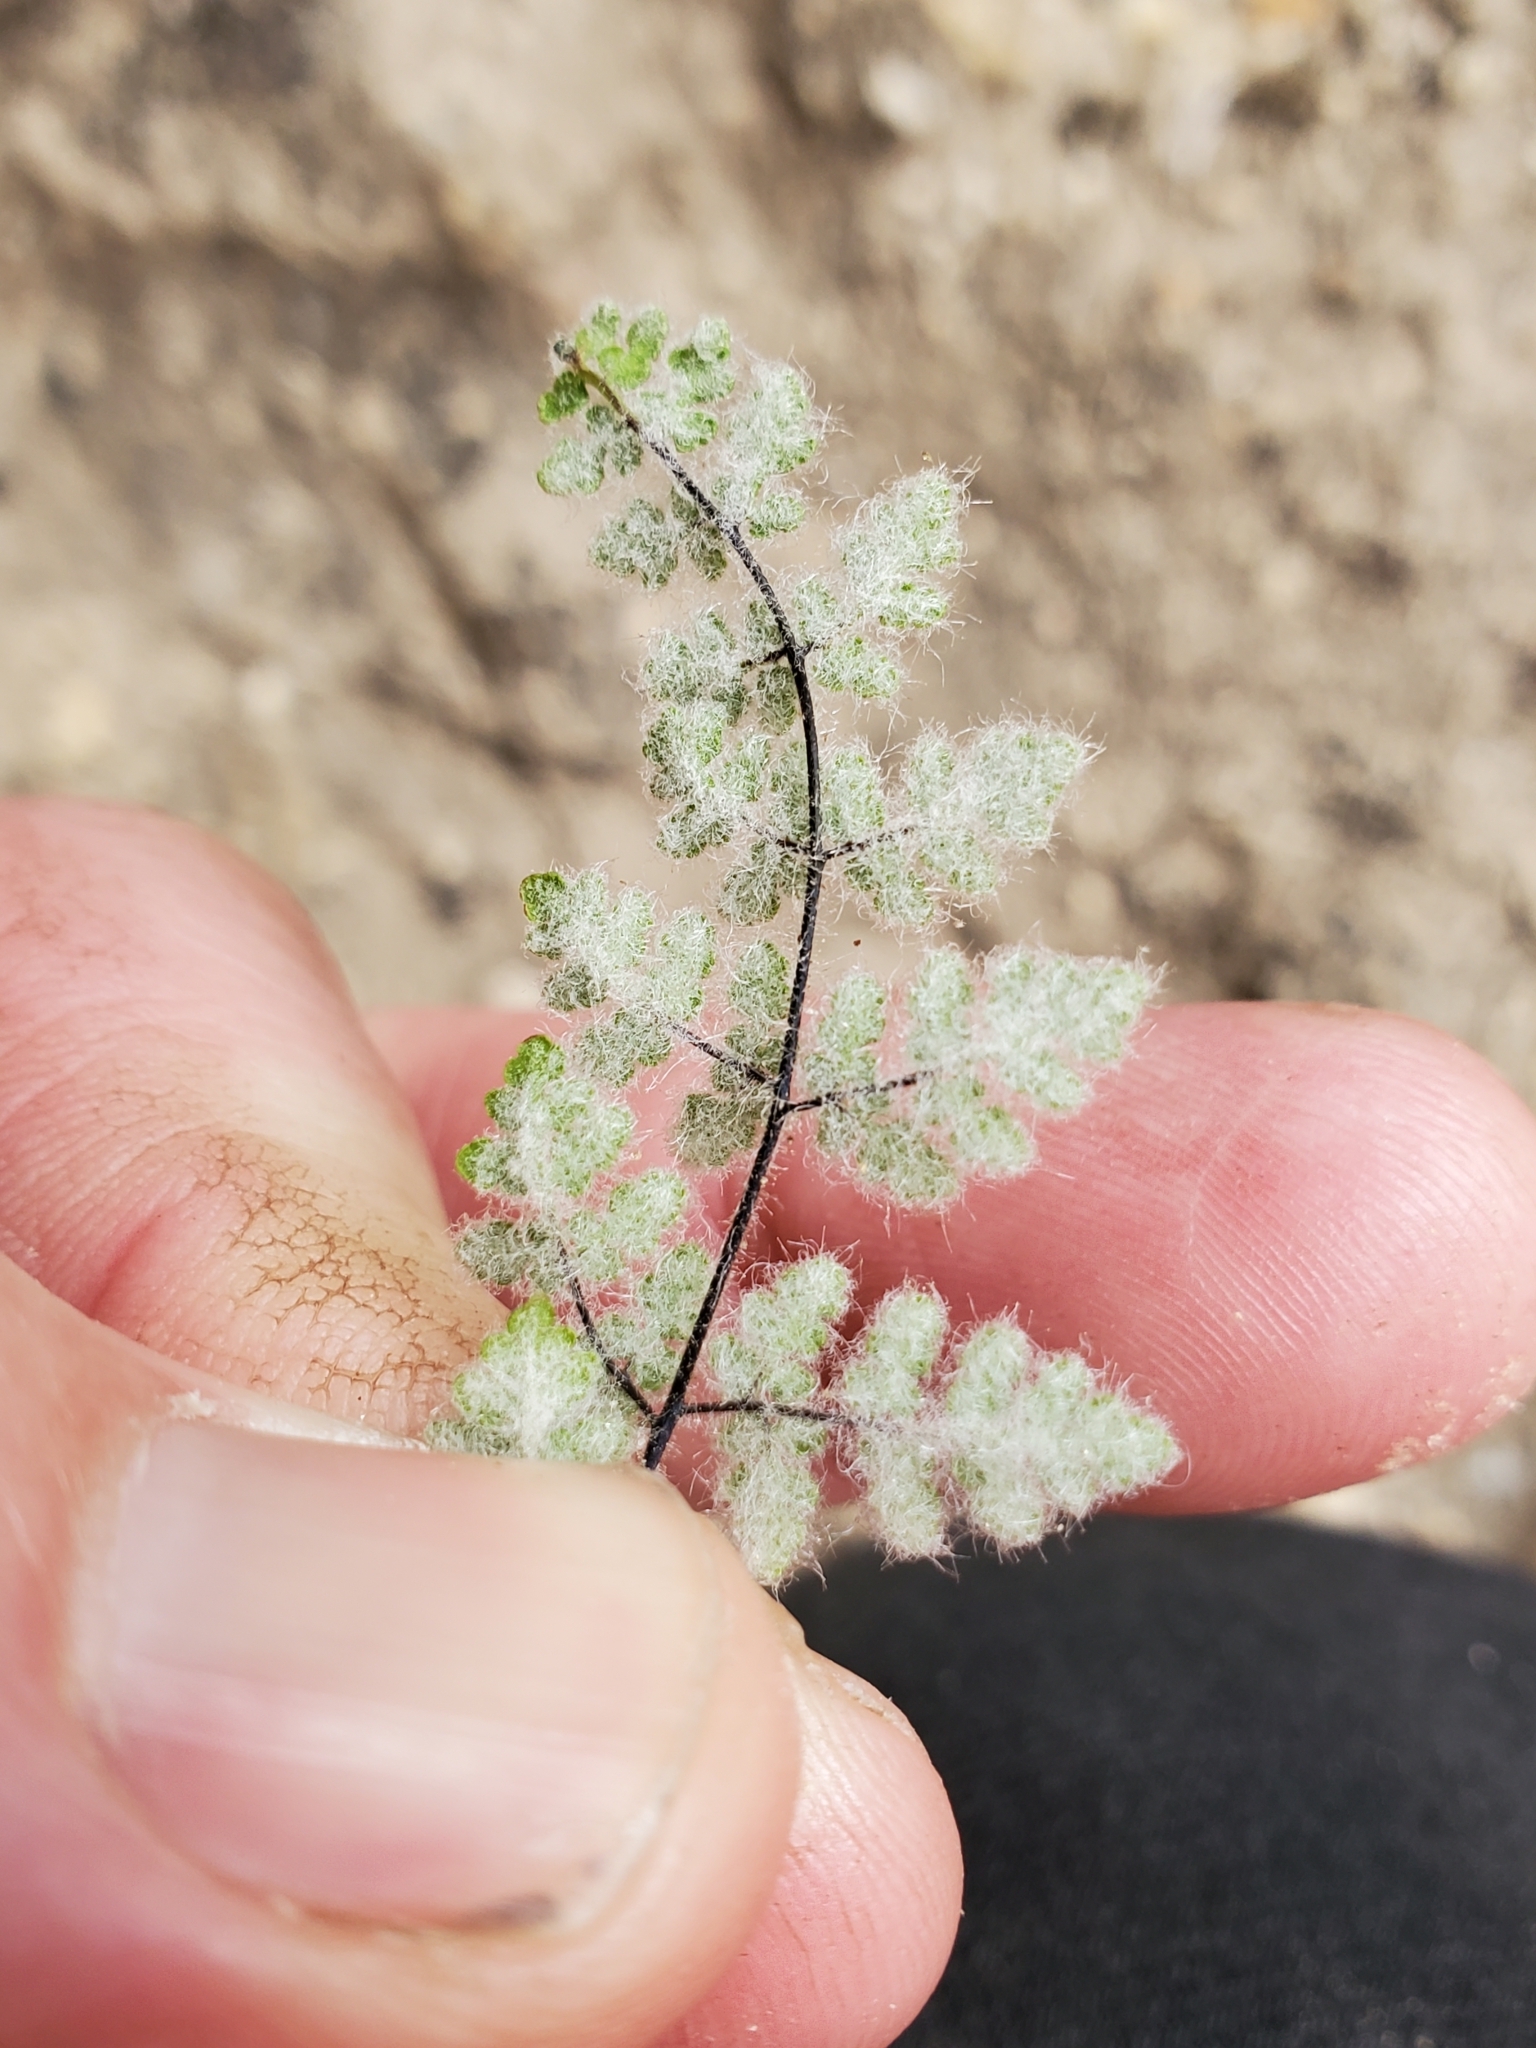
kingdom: Plantae
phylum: Tracheophyta
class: Polypodiopsida
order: Polypodiales
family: Pteridaceae
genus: Myriopteris
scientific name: Myriopteris parryi
